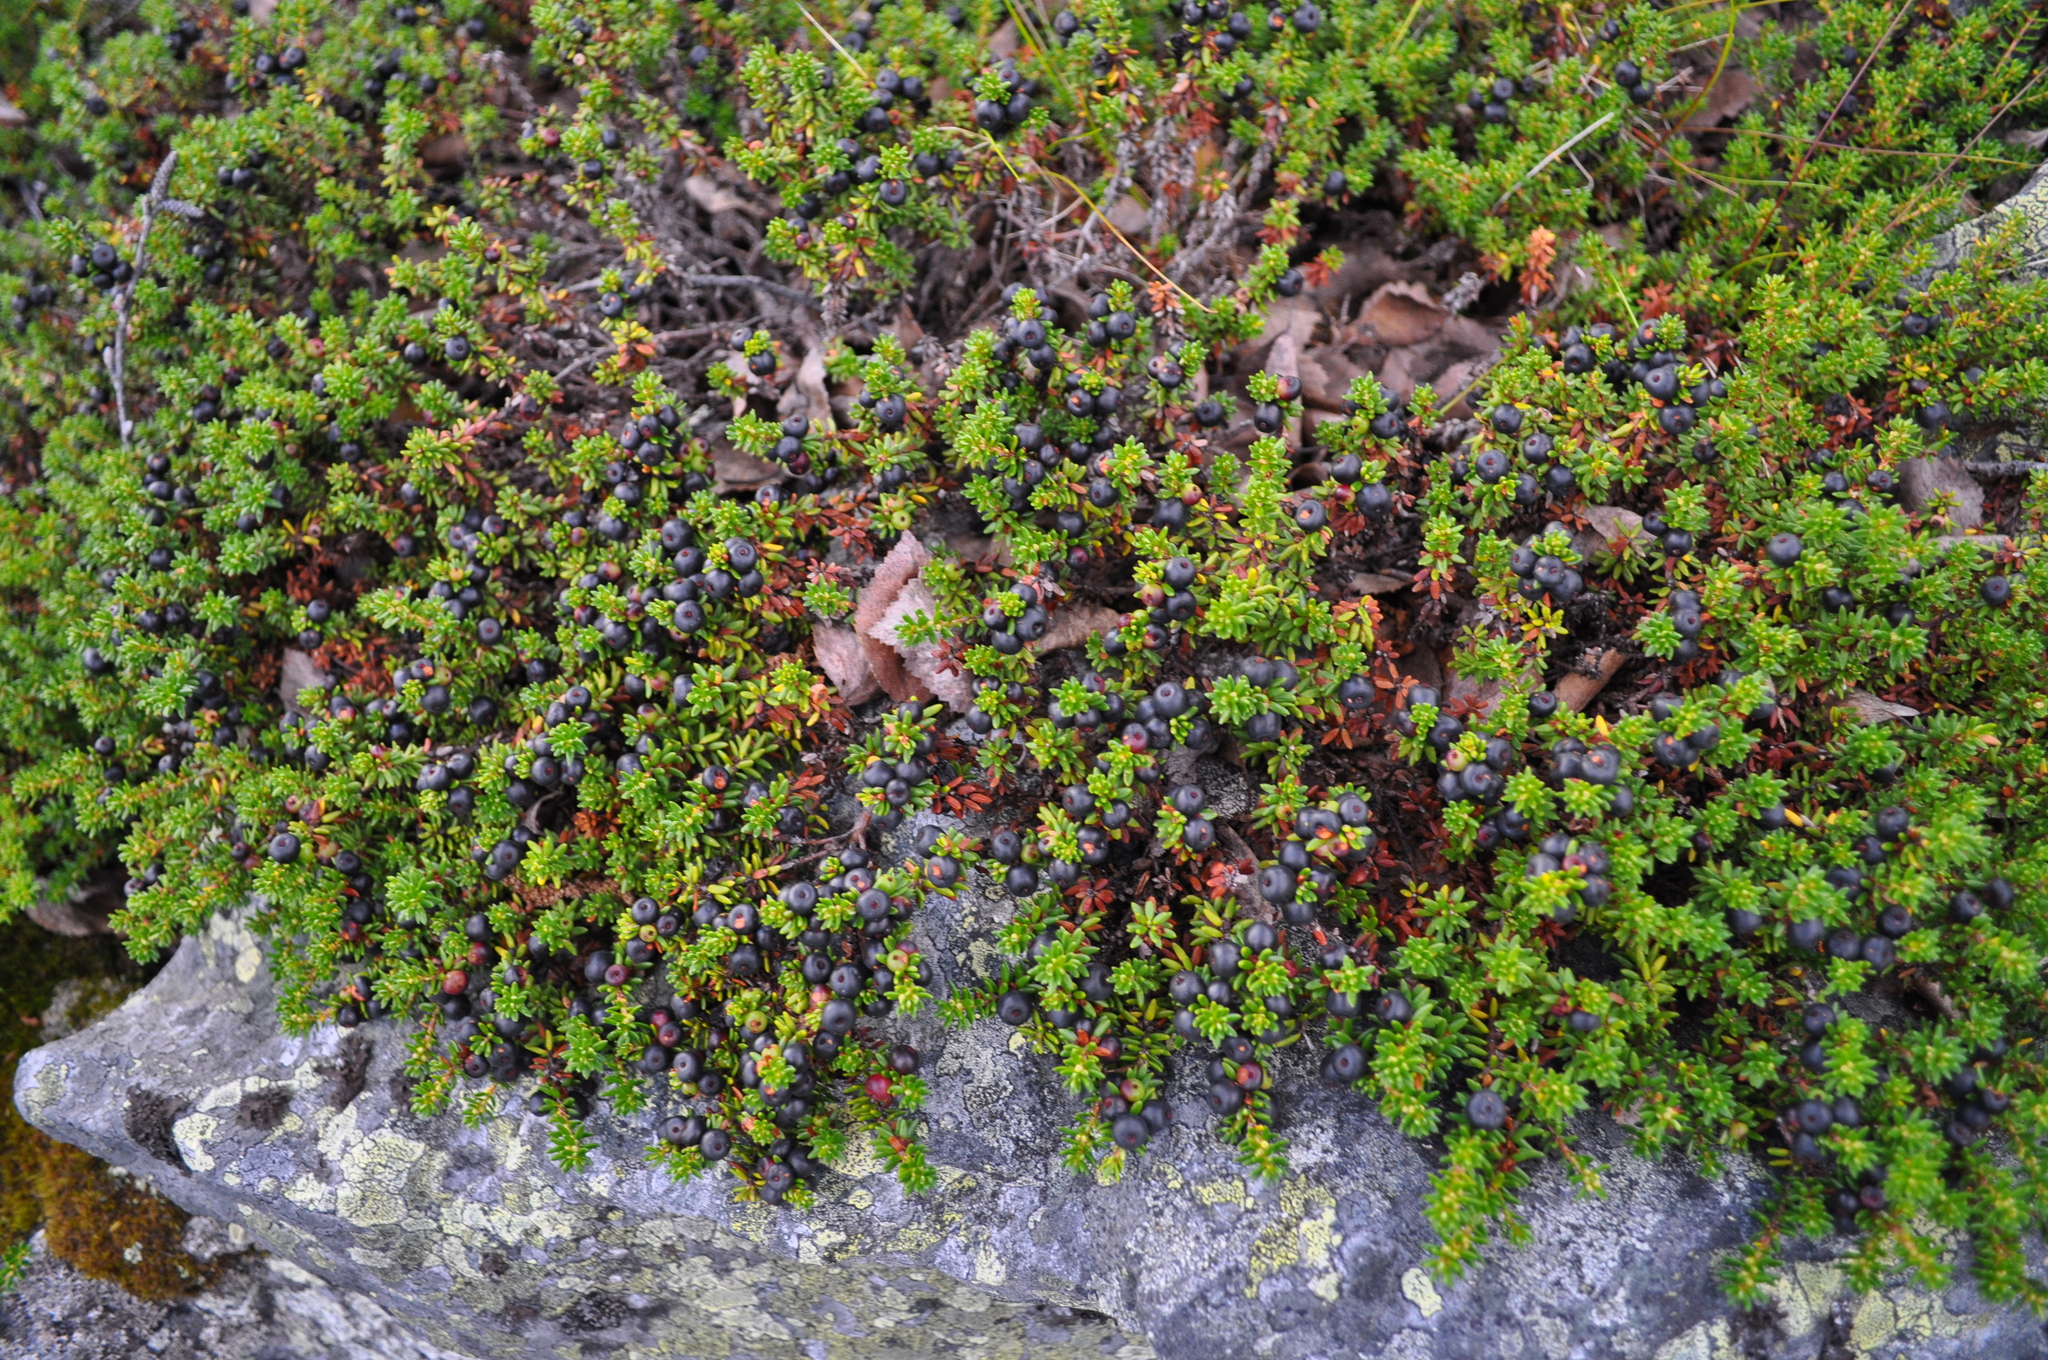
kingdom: Plantae
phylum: Tracheophyta
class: Magnoliopsida
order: Ericales
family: Ericaceae
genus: Empetrum
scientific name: Empetrum nigrum
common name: Black crowberry
